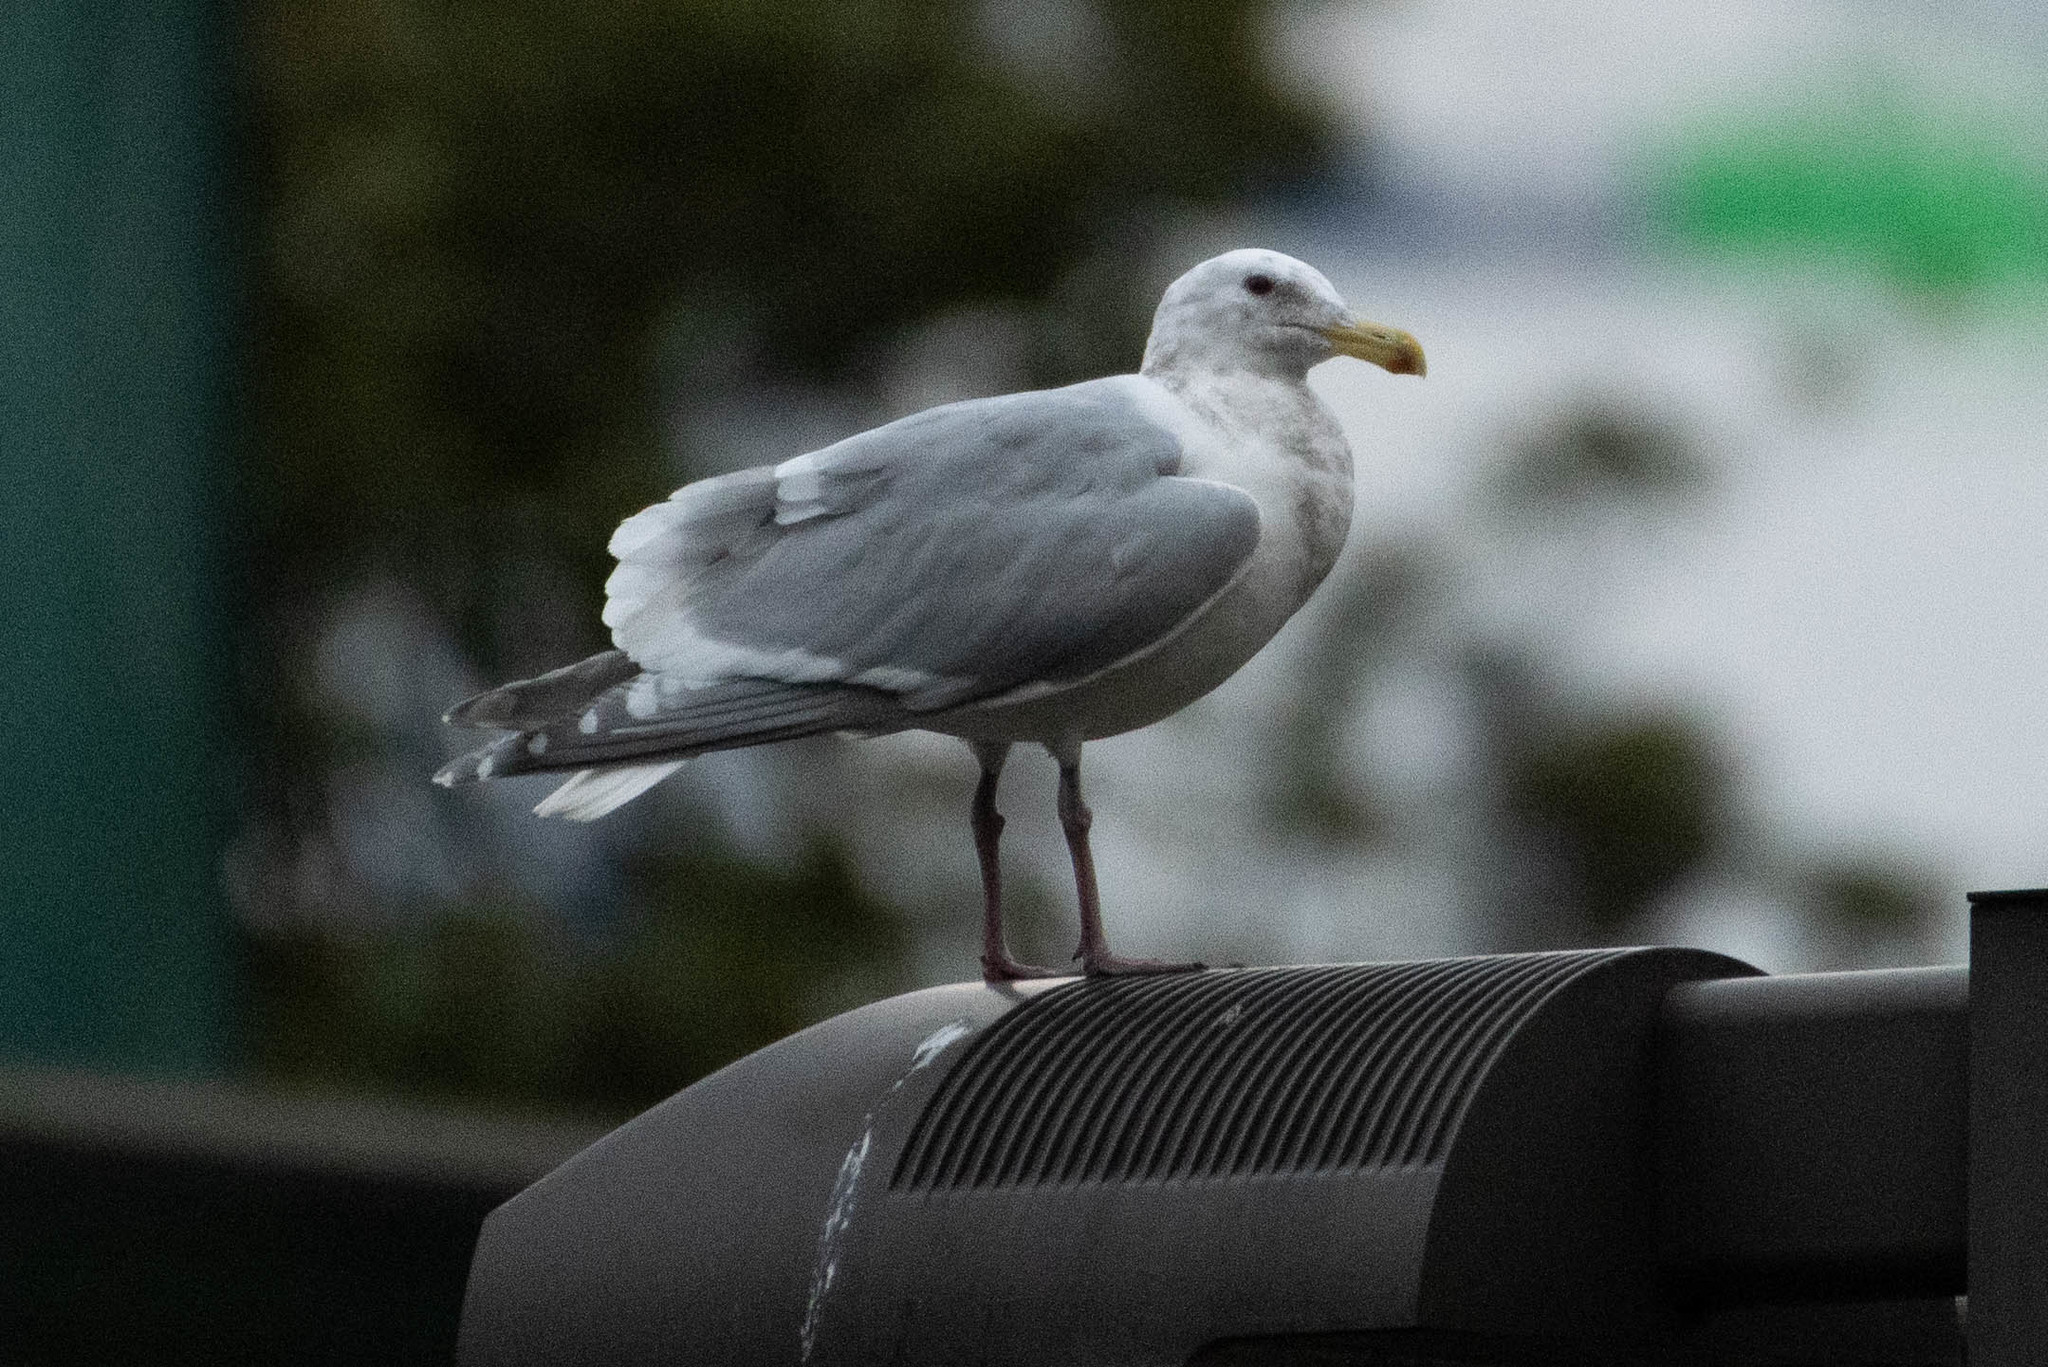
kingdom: Animalia
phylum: Chordata
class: Aves
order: Charadriiformes
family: Laridae
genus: Larus
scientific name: Larus
